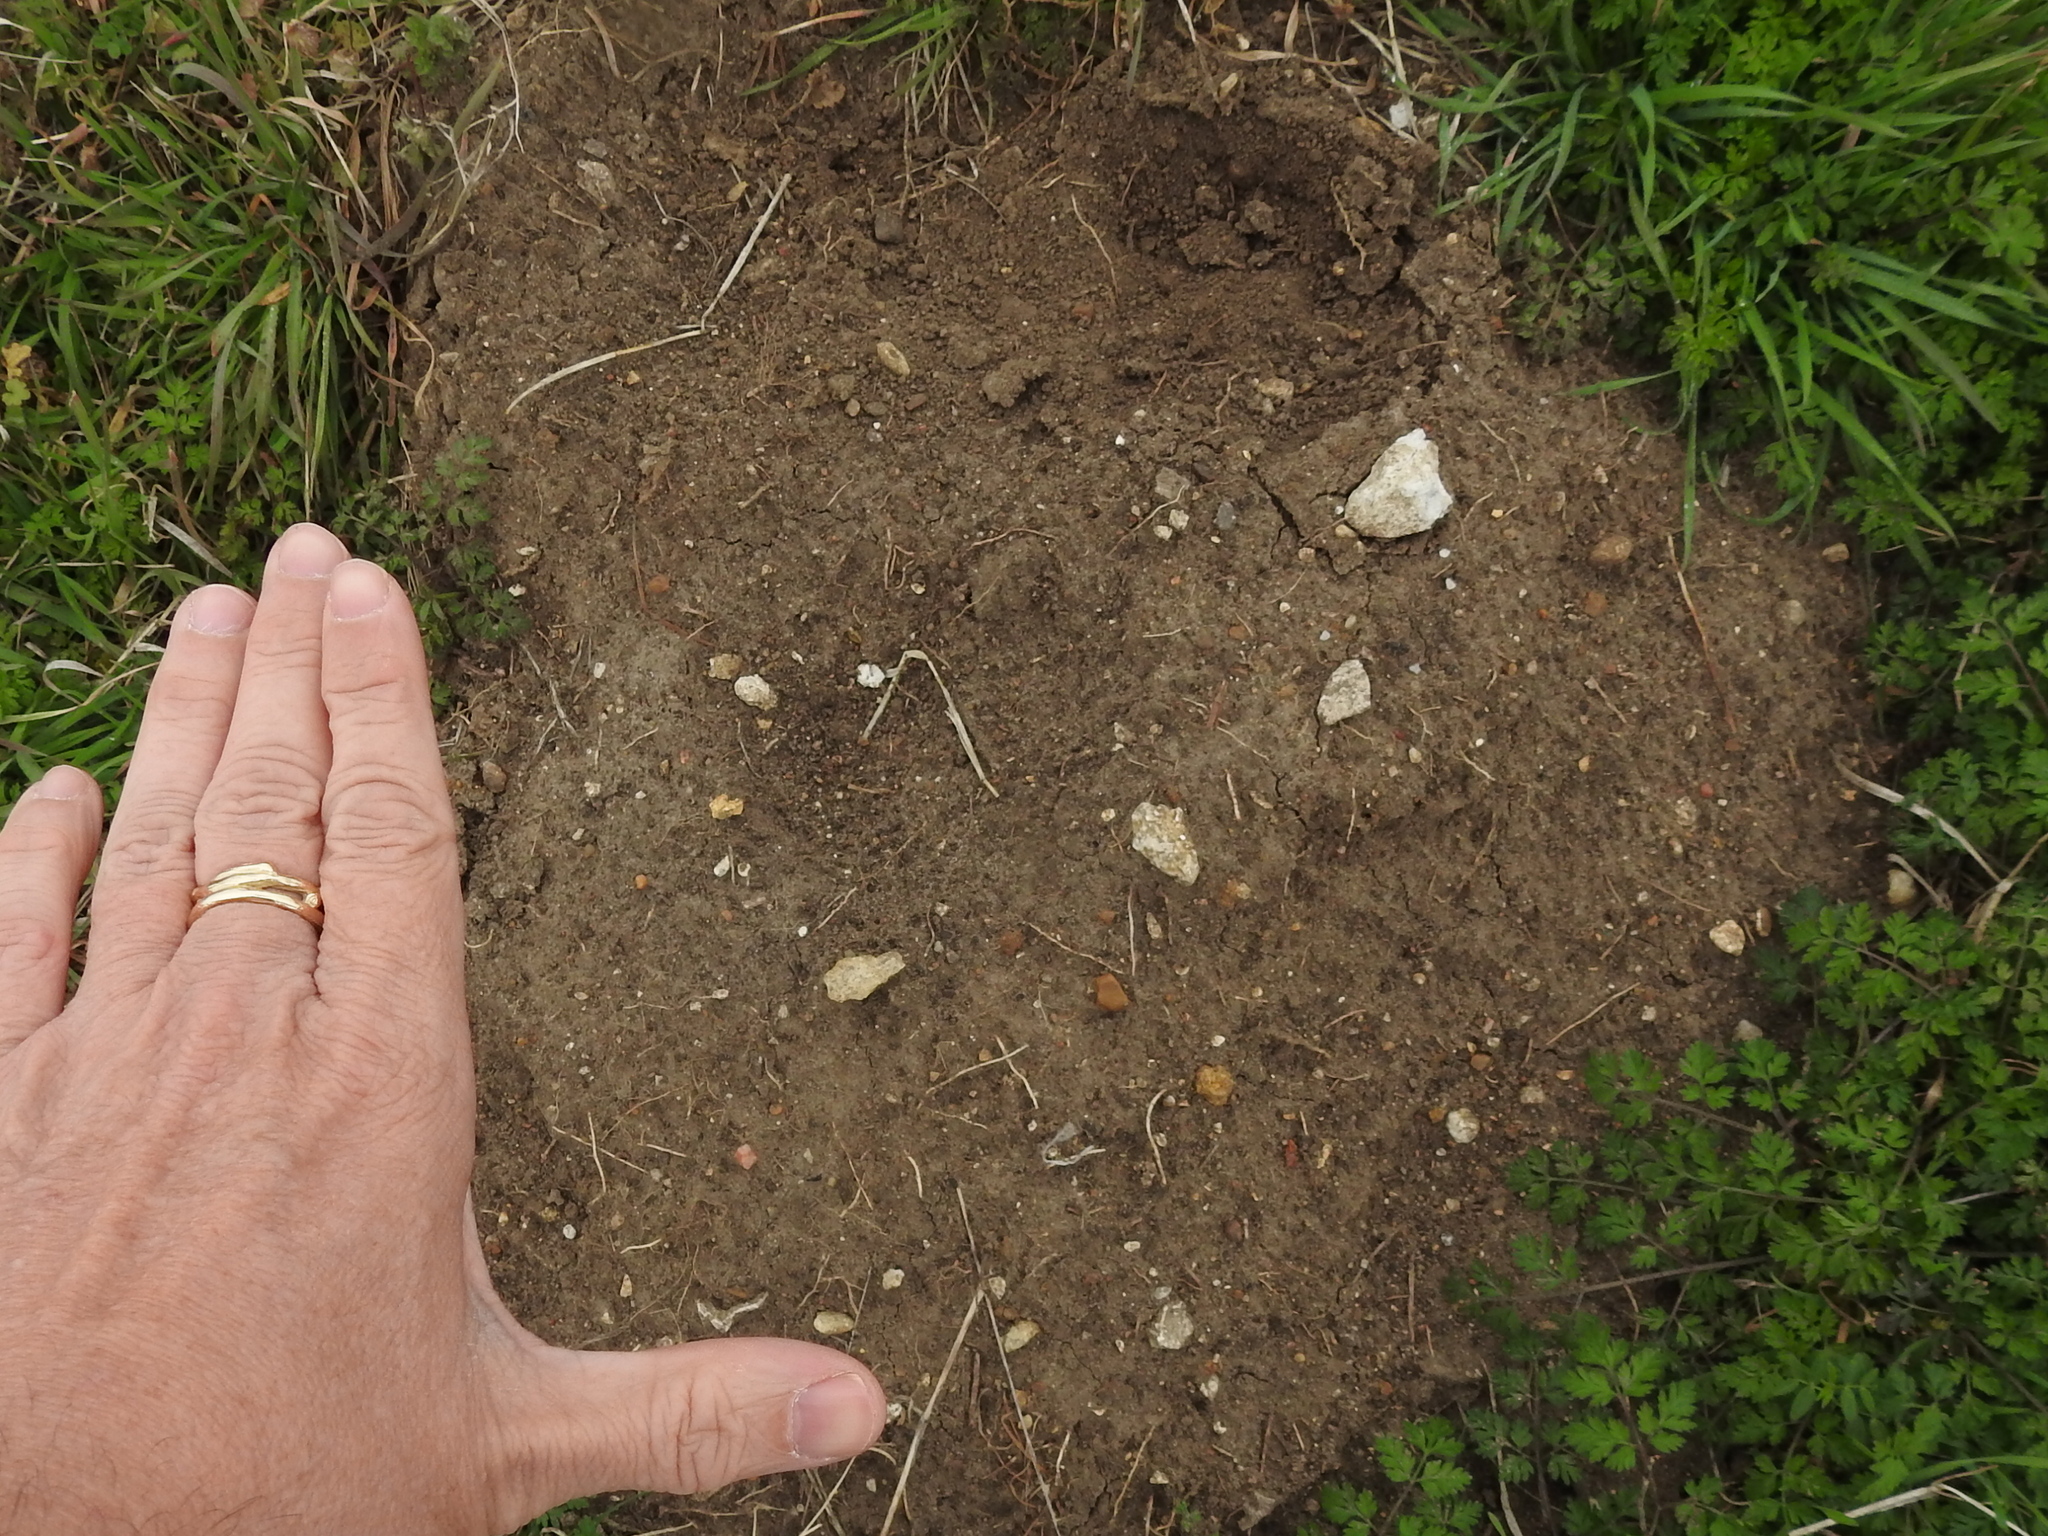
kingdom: Animalia
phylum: Chordata
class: Mammalia
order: Rodentia
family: Geomyidae
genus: Geomys
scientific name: Geomys bursarius
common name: Plains pocket gopher
